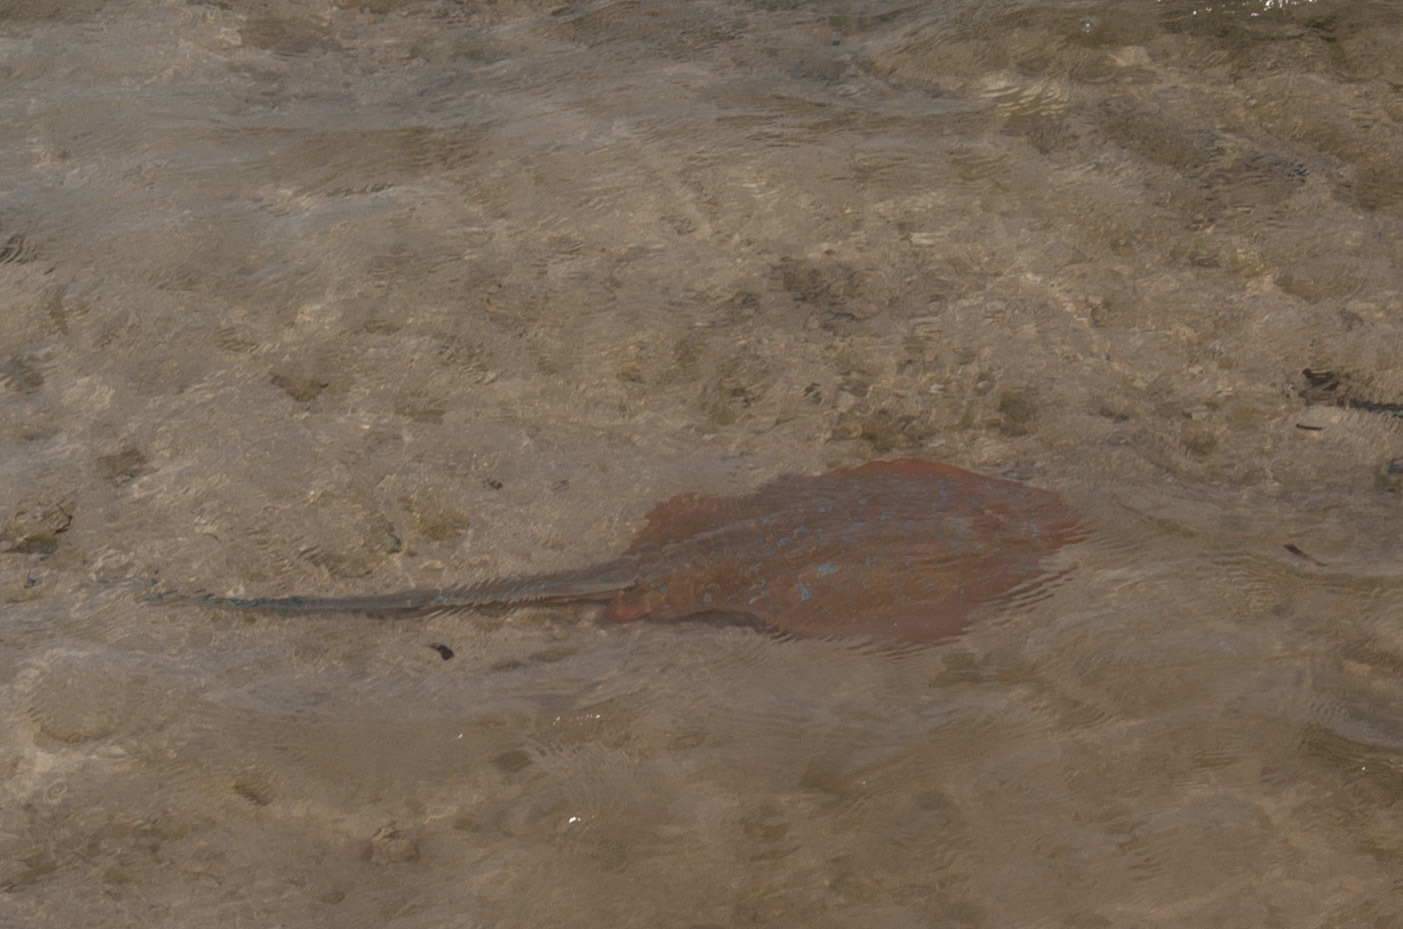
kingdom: Animalia
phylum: Chordata
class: Elasmobranchii
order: Myliobatiformes
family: Dasyatidae
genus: Taeniura
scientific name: Taeniura lymma
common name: Bluespotted ribbontail ray
